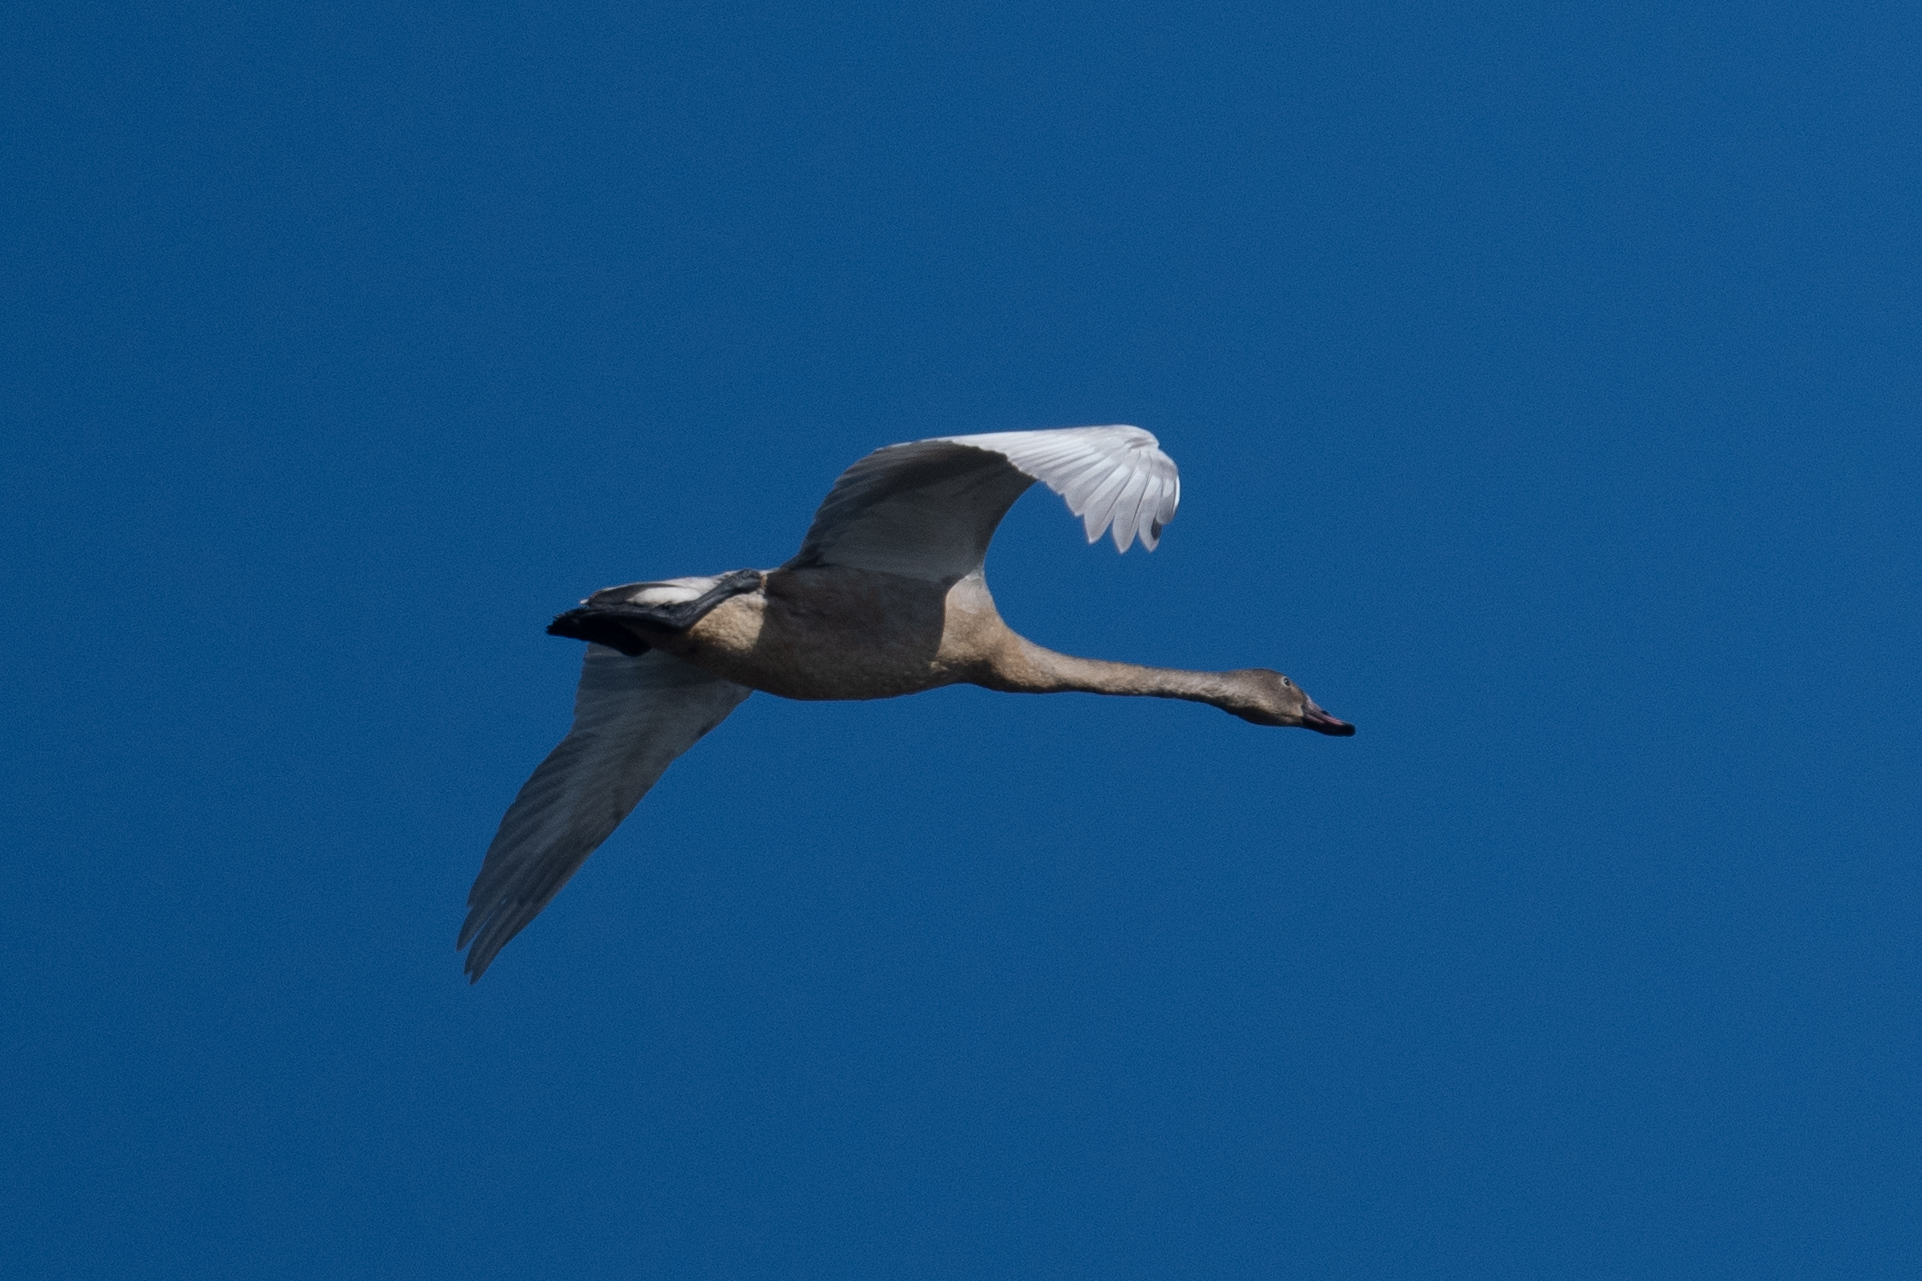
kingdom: Animalia
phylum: Chordata
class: Aves
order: Anseriformes
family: Anatidae
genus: Cygnus
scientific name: Cygnus columbianus
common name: Tundra swan
